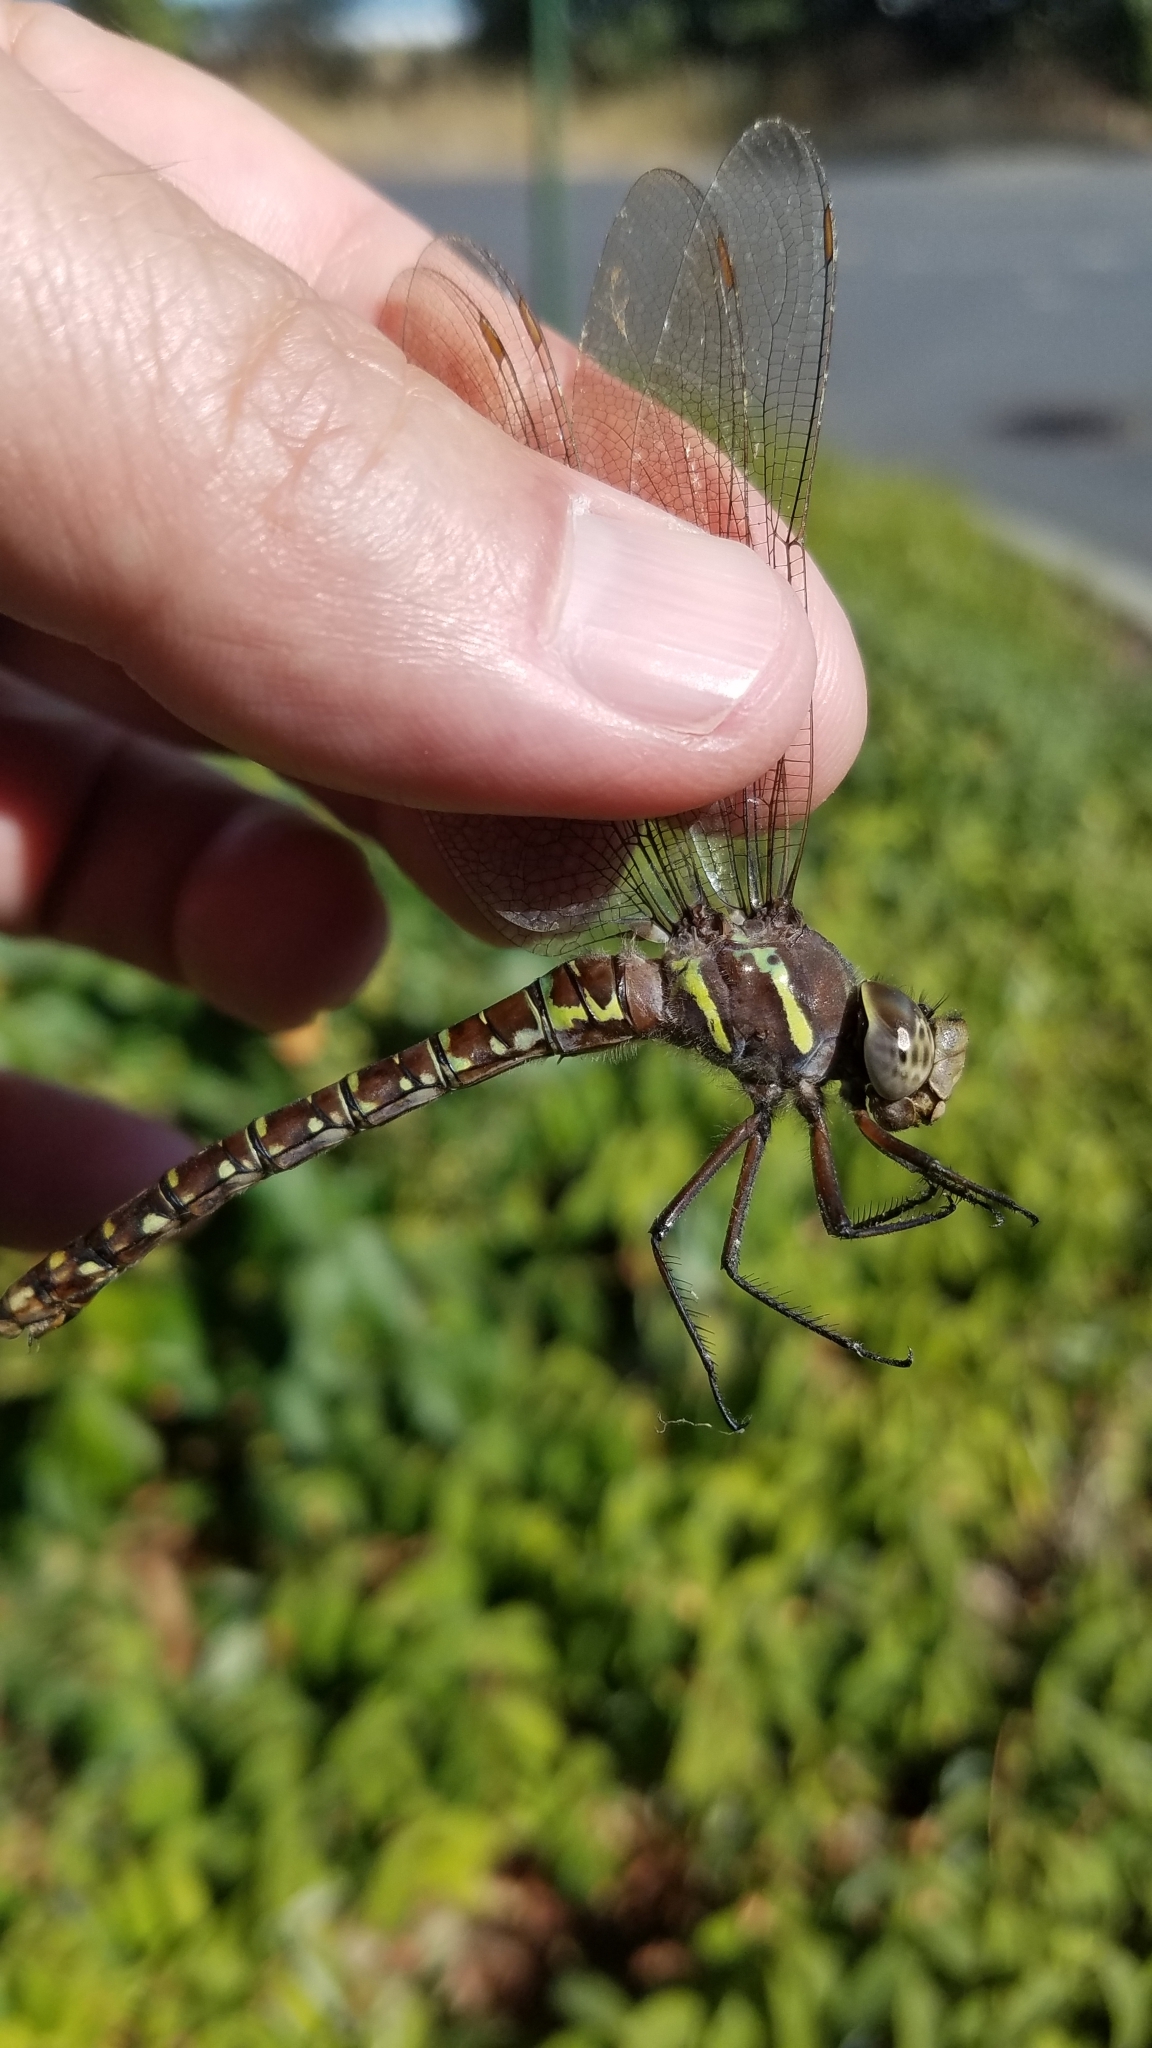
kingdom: Animalia
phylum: Arthropoda
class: Insecta
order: Odonata
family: Aeshnidae
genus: Aeshna
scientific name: Aeshna umbrosa
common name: Shadow darner
